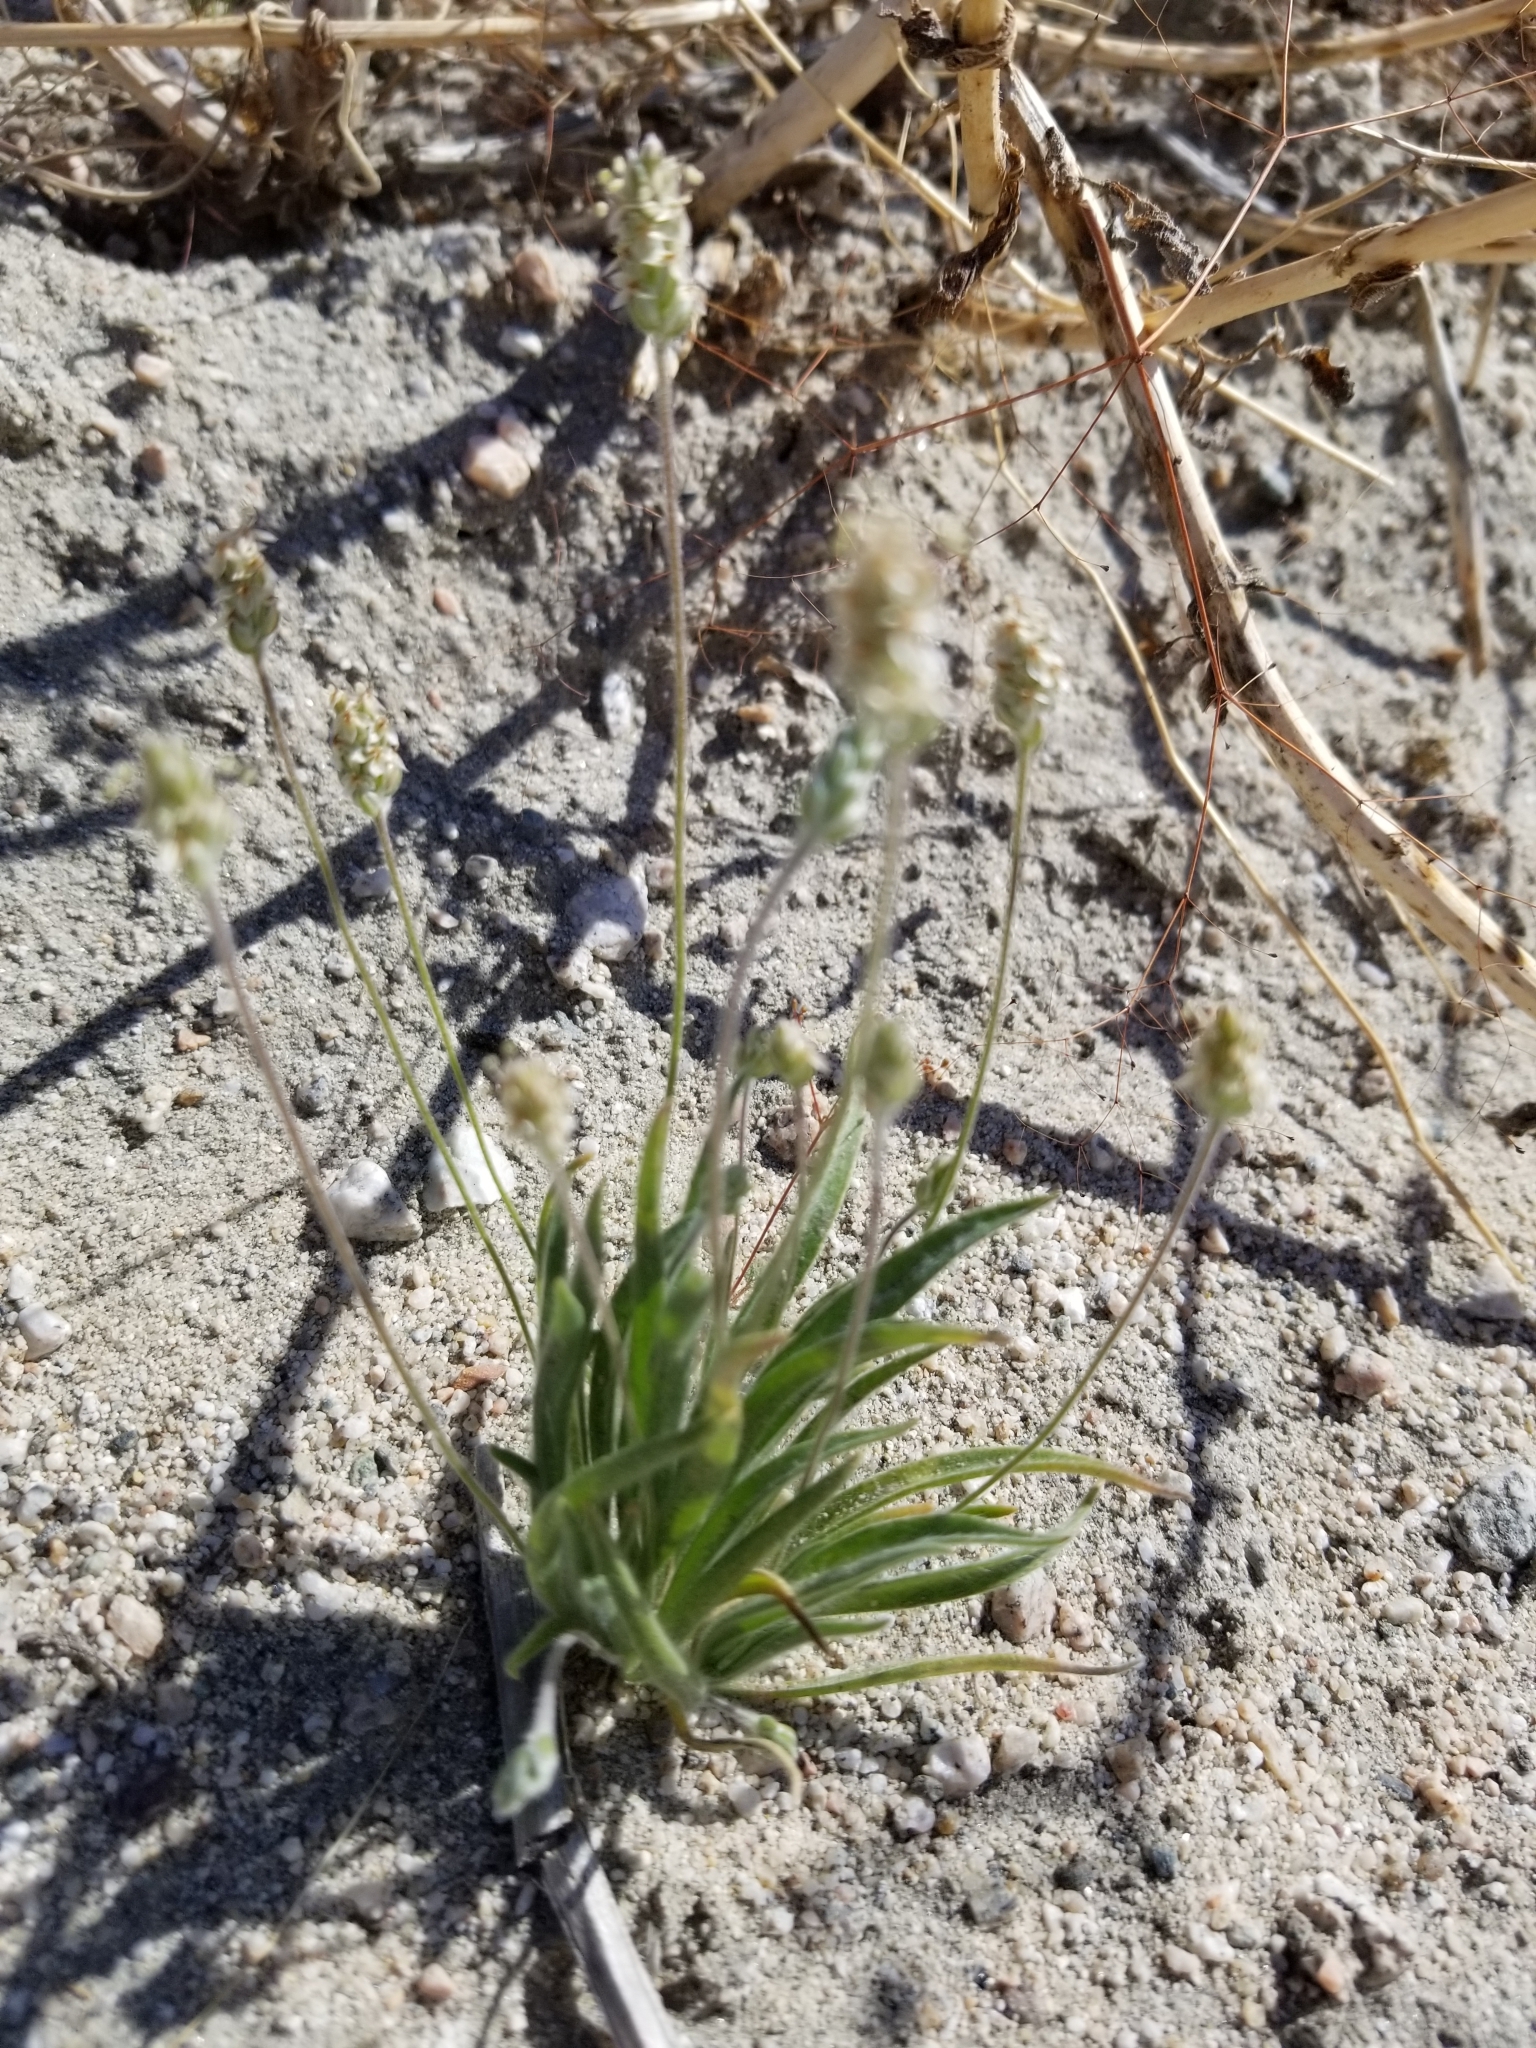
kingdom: Plantae
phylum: Tracheophyta
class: Magnoliopsida
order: Lamiales
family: Plantaginaceae
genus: Plantago
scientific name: Plantago ovata
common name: Blond plantain
